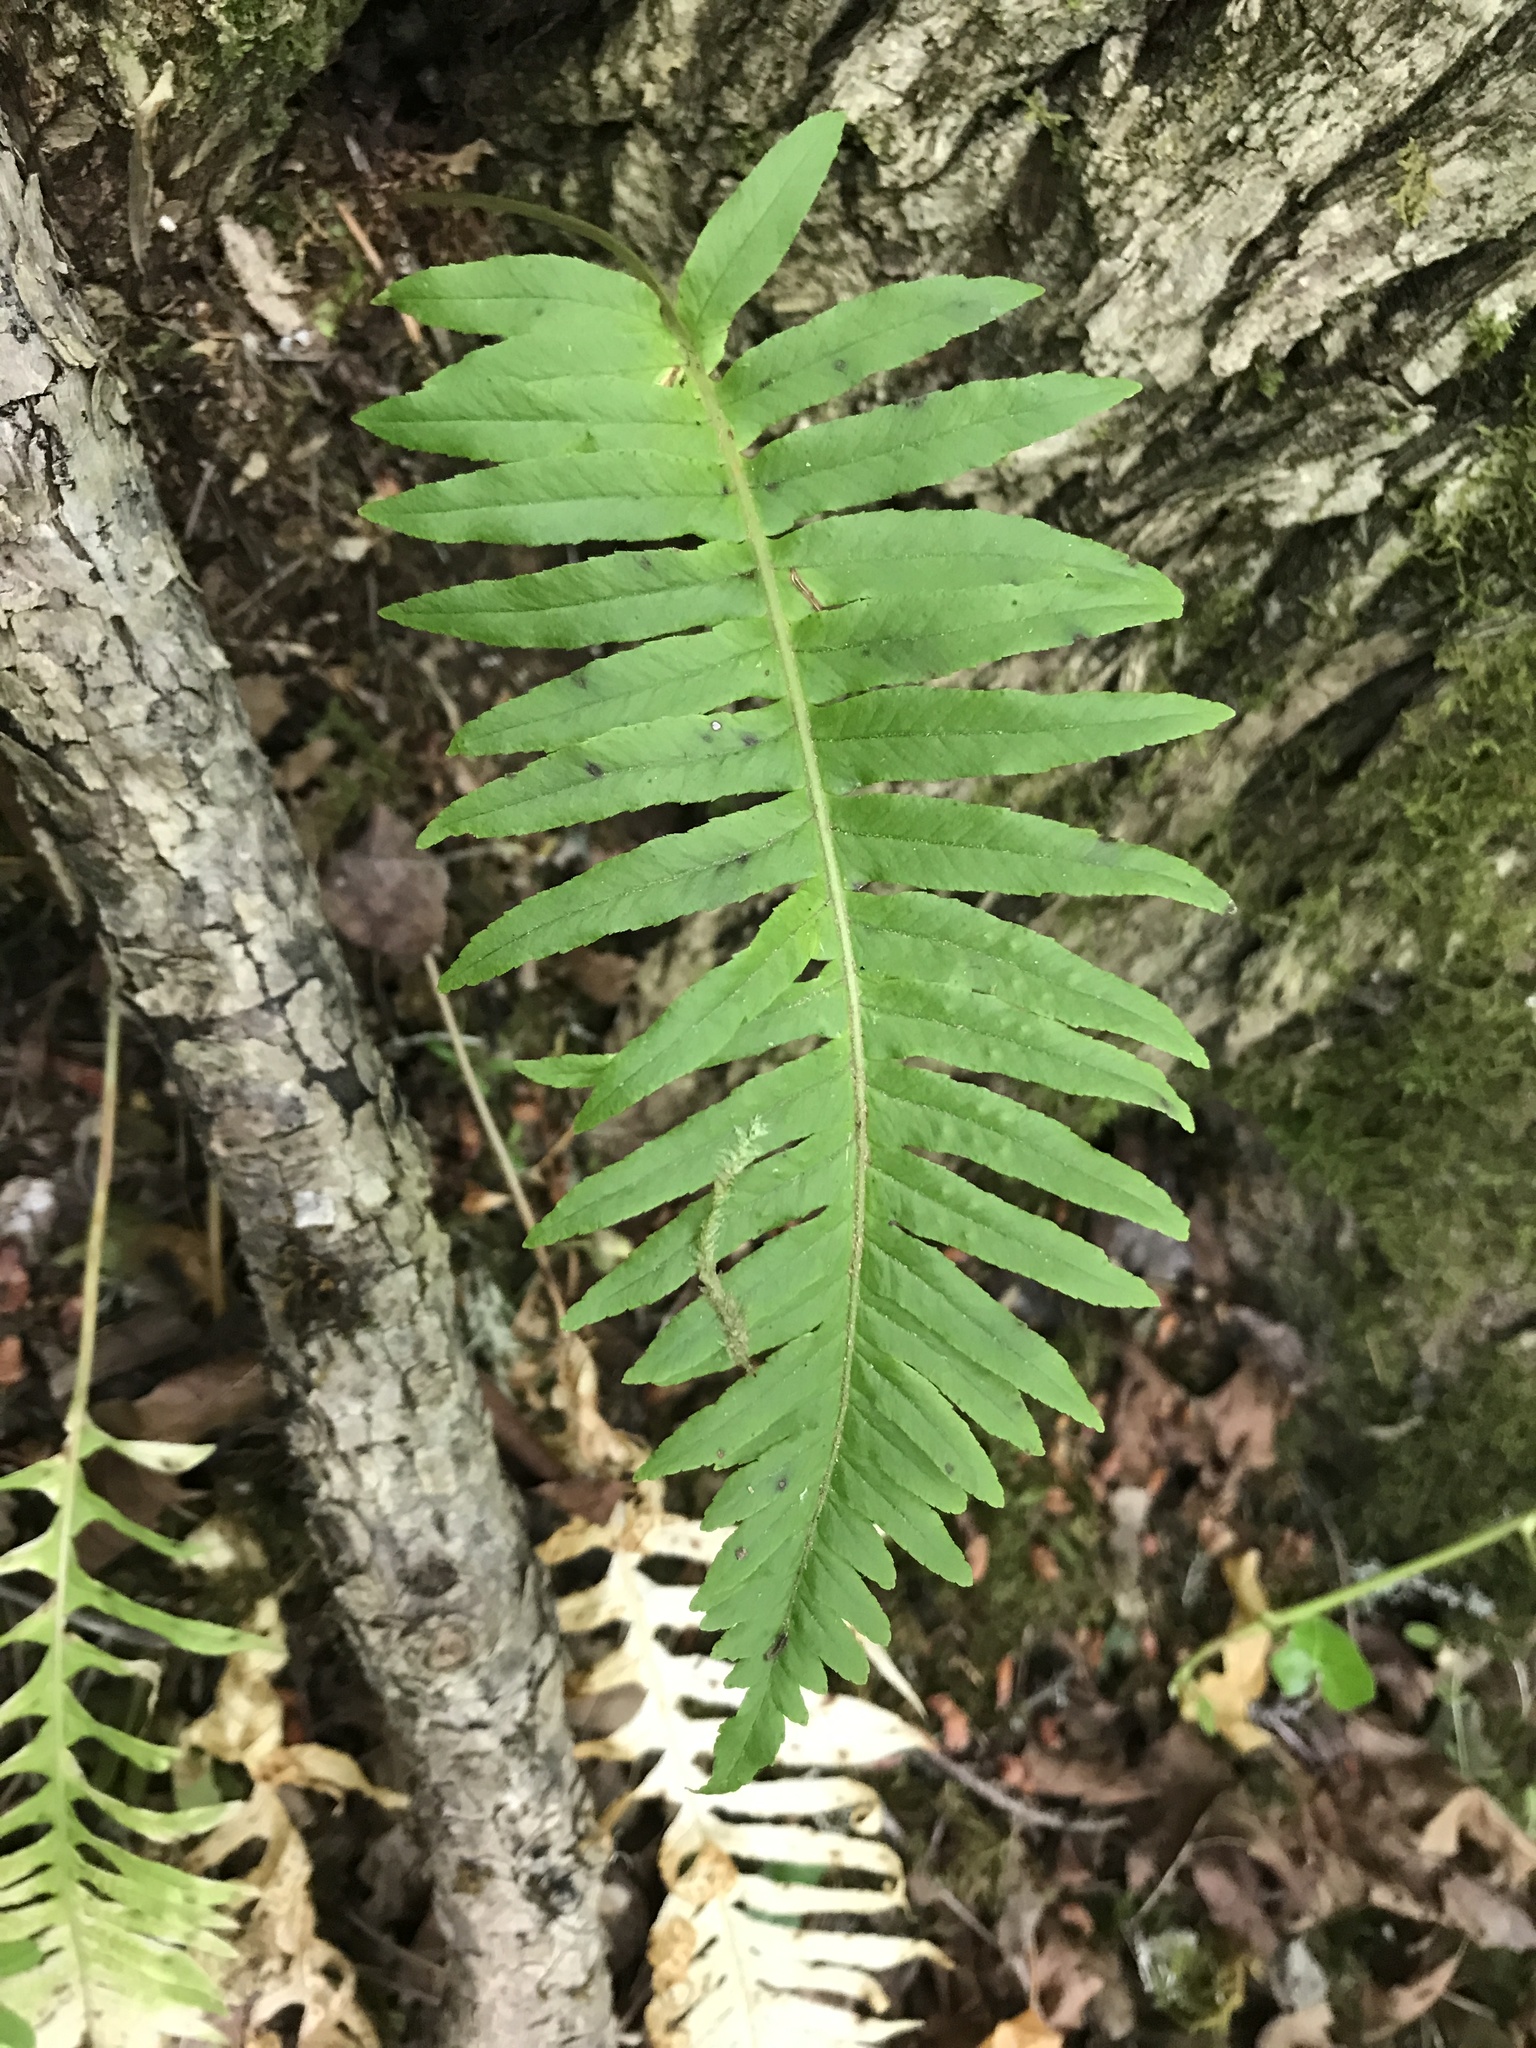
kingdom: Plantae
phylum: Tracheophyta
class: Polypodiopsida
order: Polypodiales
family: Polypodiaceae
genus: Polypodium
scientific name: Polypodium glycyrrhiza
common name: Licorice fern
